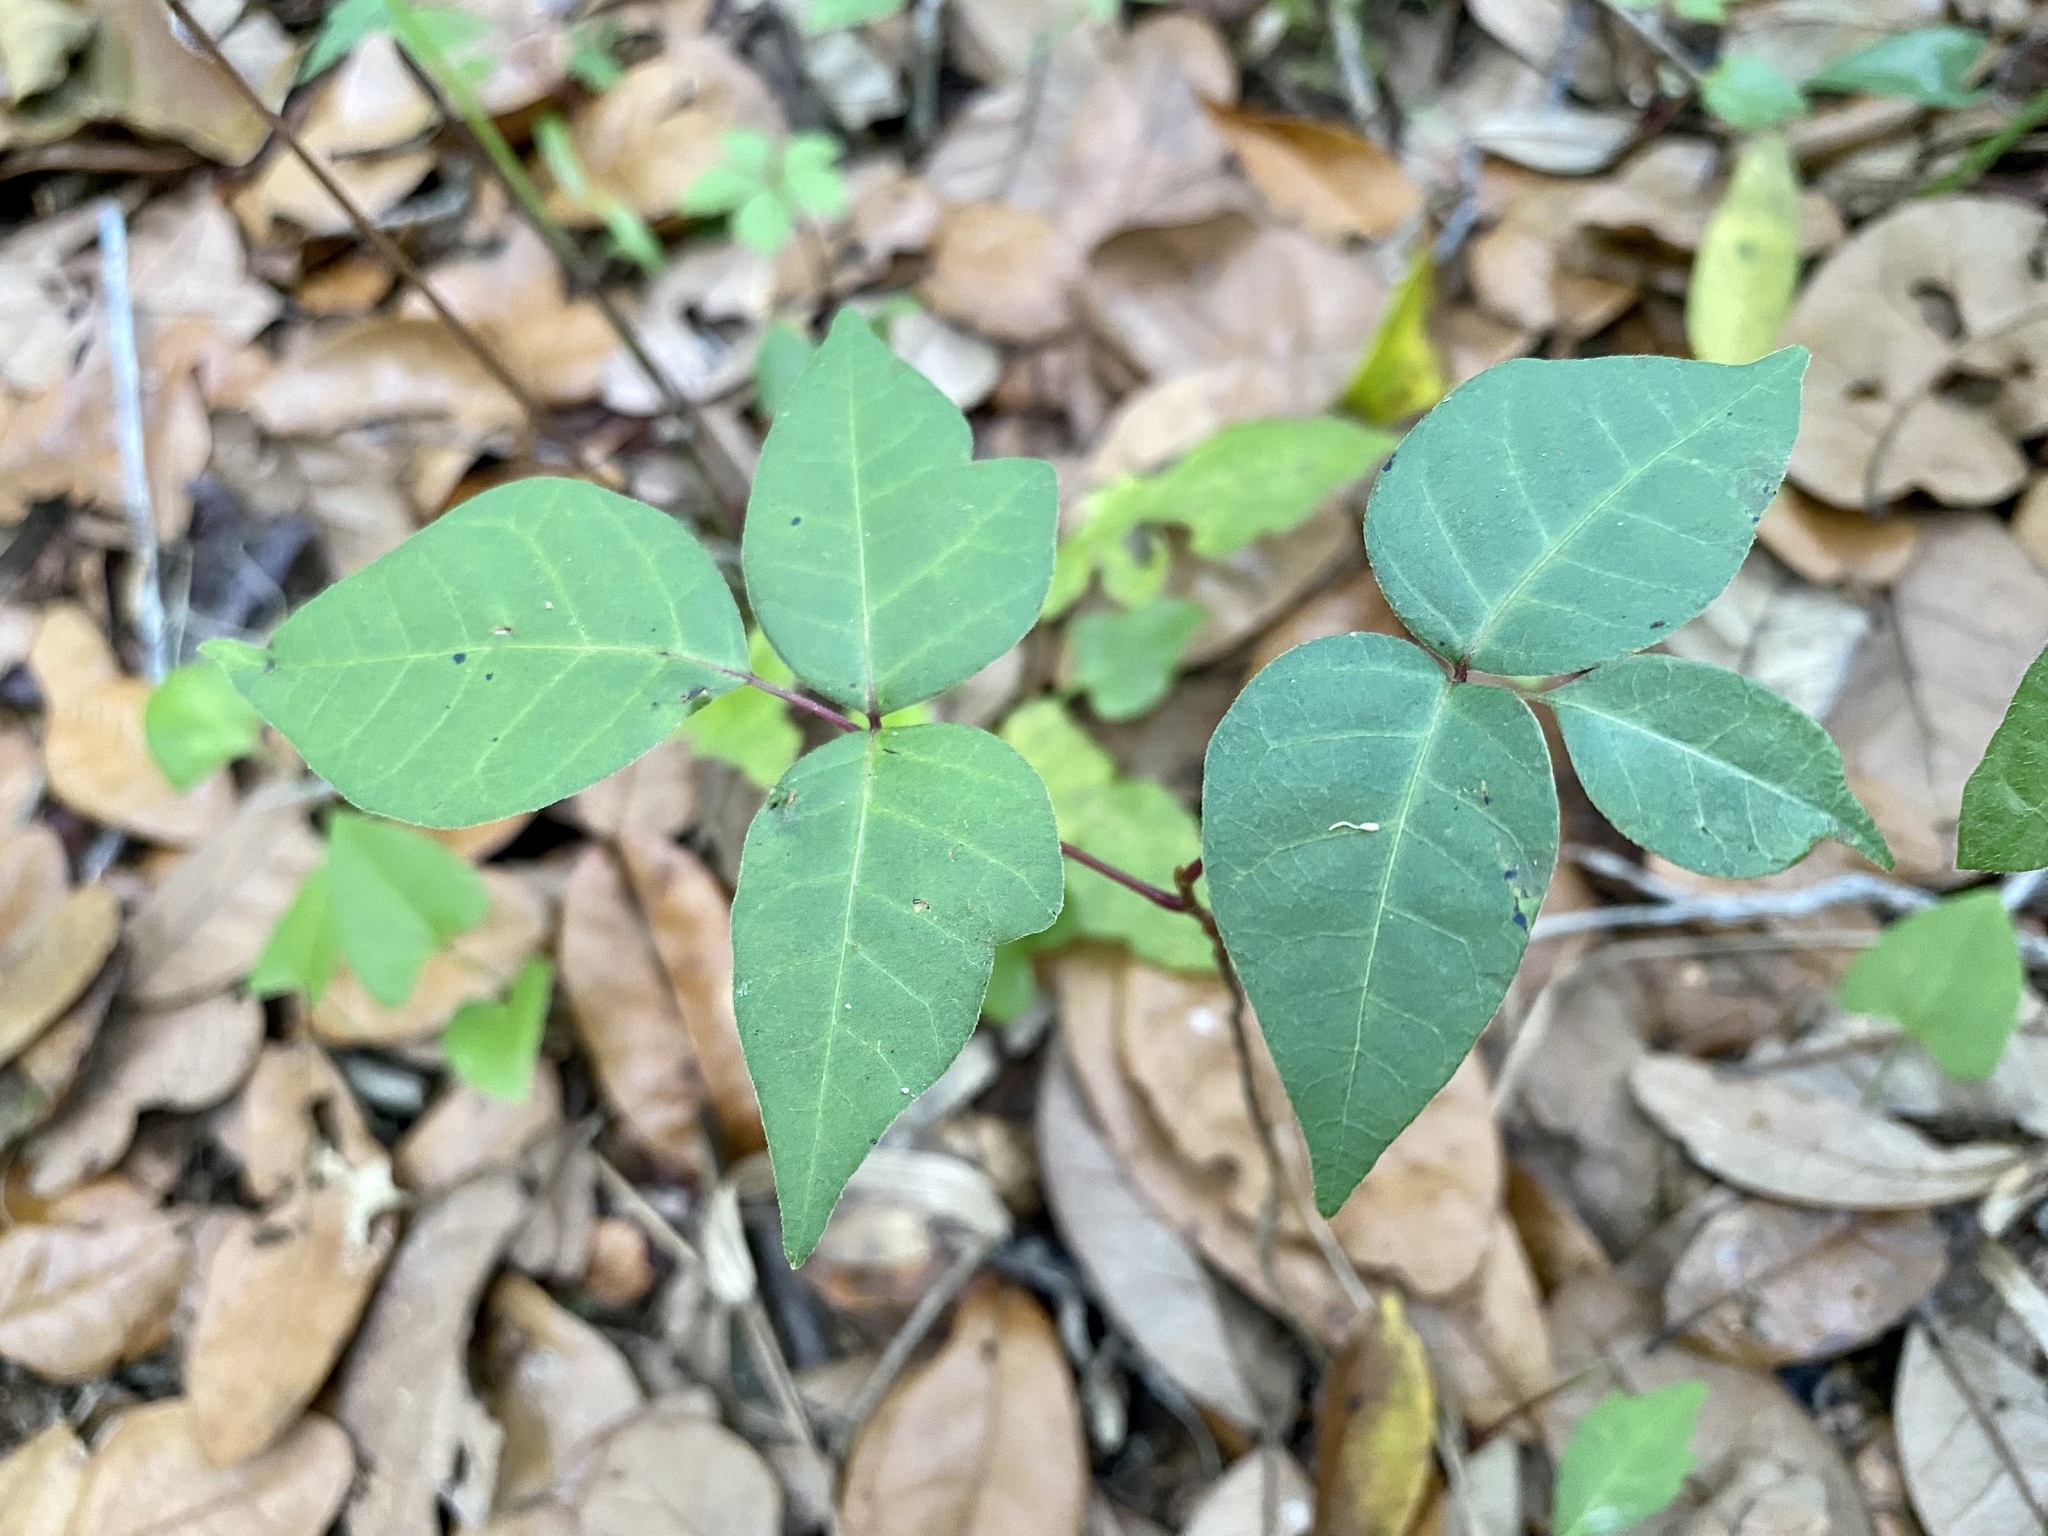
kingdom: Plantae
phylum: Tracheophyta
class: Magnoliopsida
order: Sapindales
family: Anacardiaceae
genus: Toxicodendron
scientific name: Toxicodendron radicans
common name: Poison ivy
